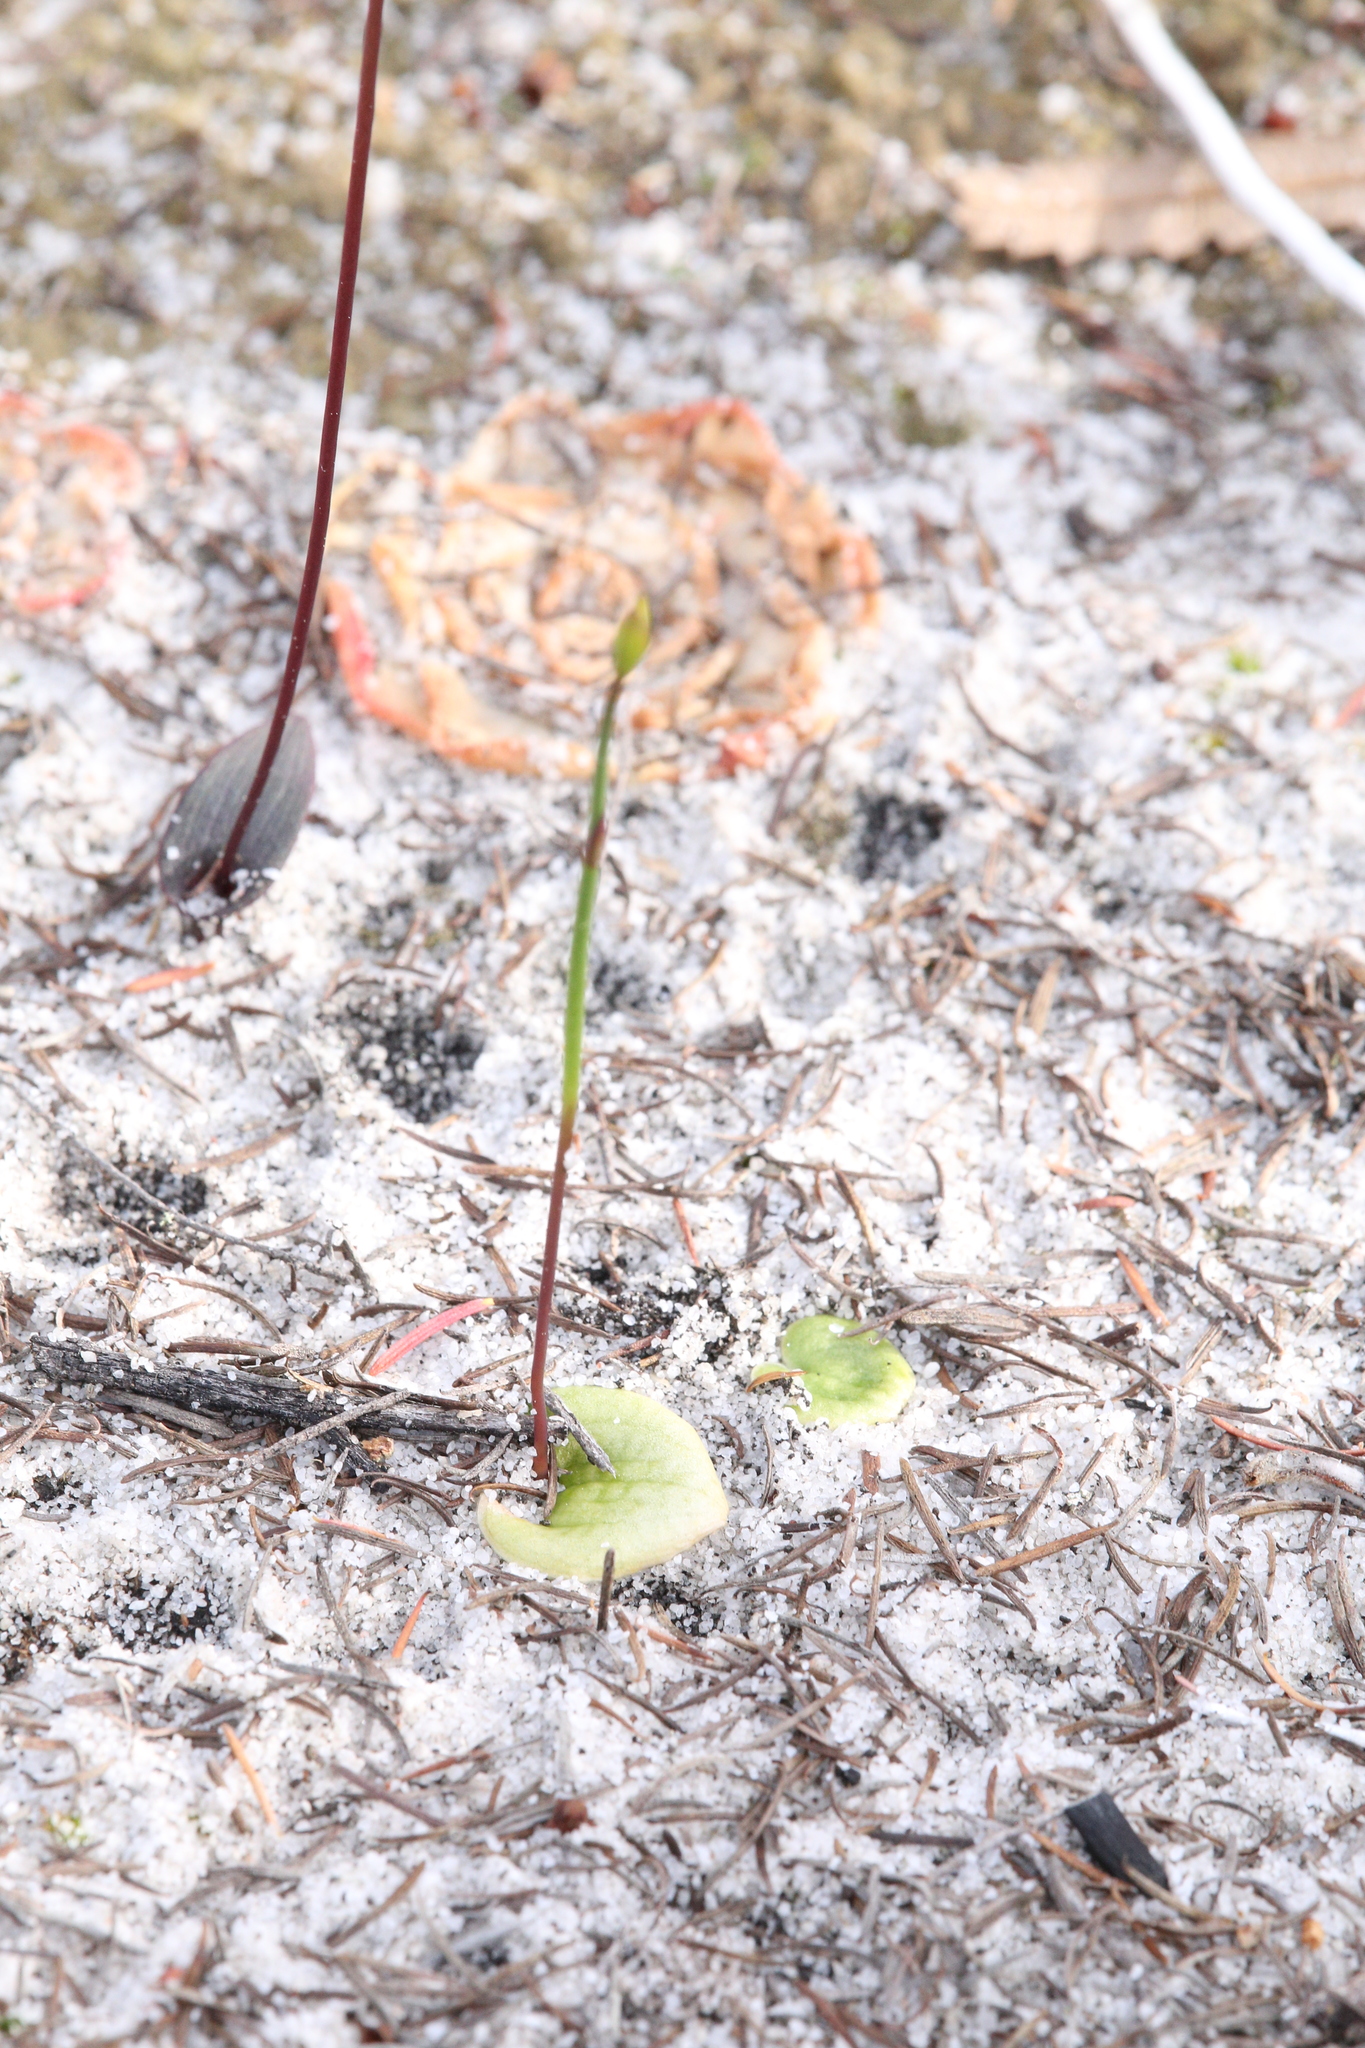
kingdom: Plantae
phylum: Tracheophyta
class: Liliopsida
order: Asparagales
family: Orchidaceae
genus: Drakaea
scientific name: Drakaea elastica
